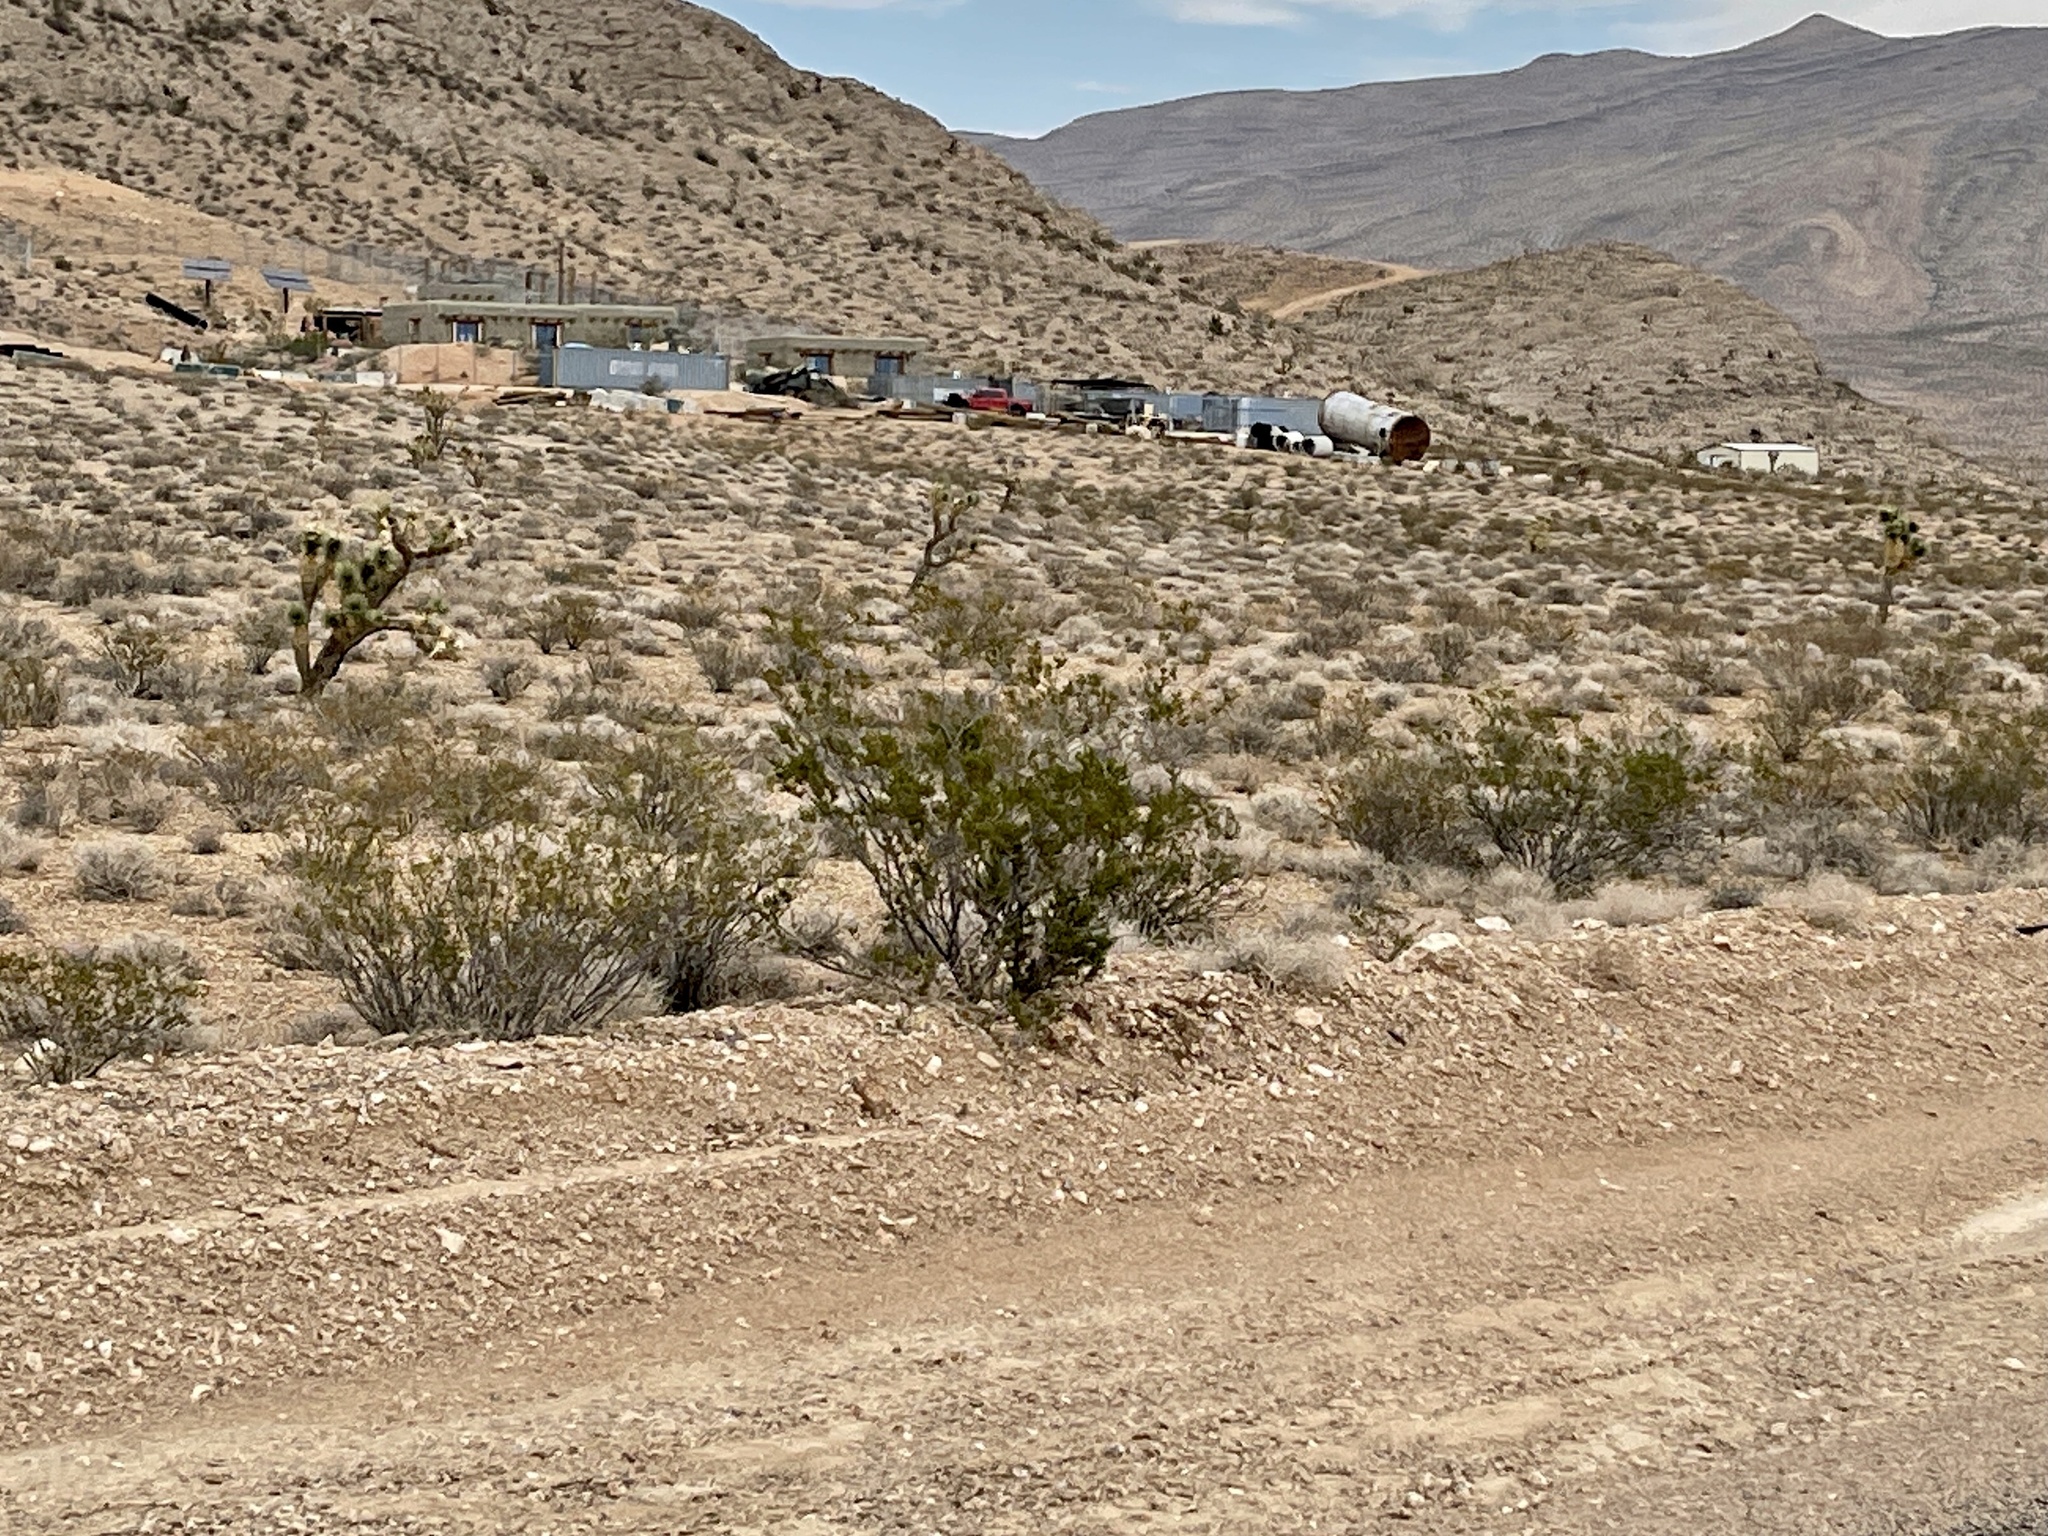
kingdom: Plantae
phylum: Tracheophyta
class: Magnoliopsida
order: Zygophyllales
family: Zygophyllaceae
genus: Larrea
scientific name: Larrea tridentata
